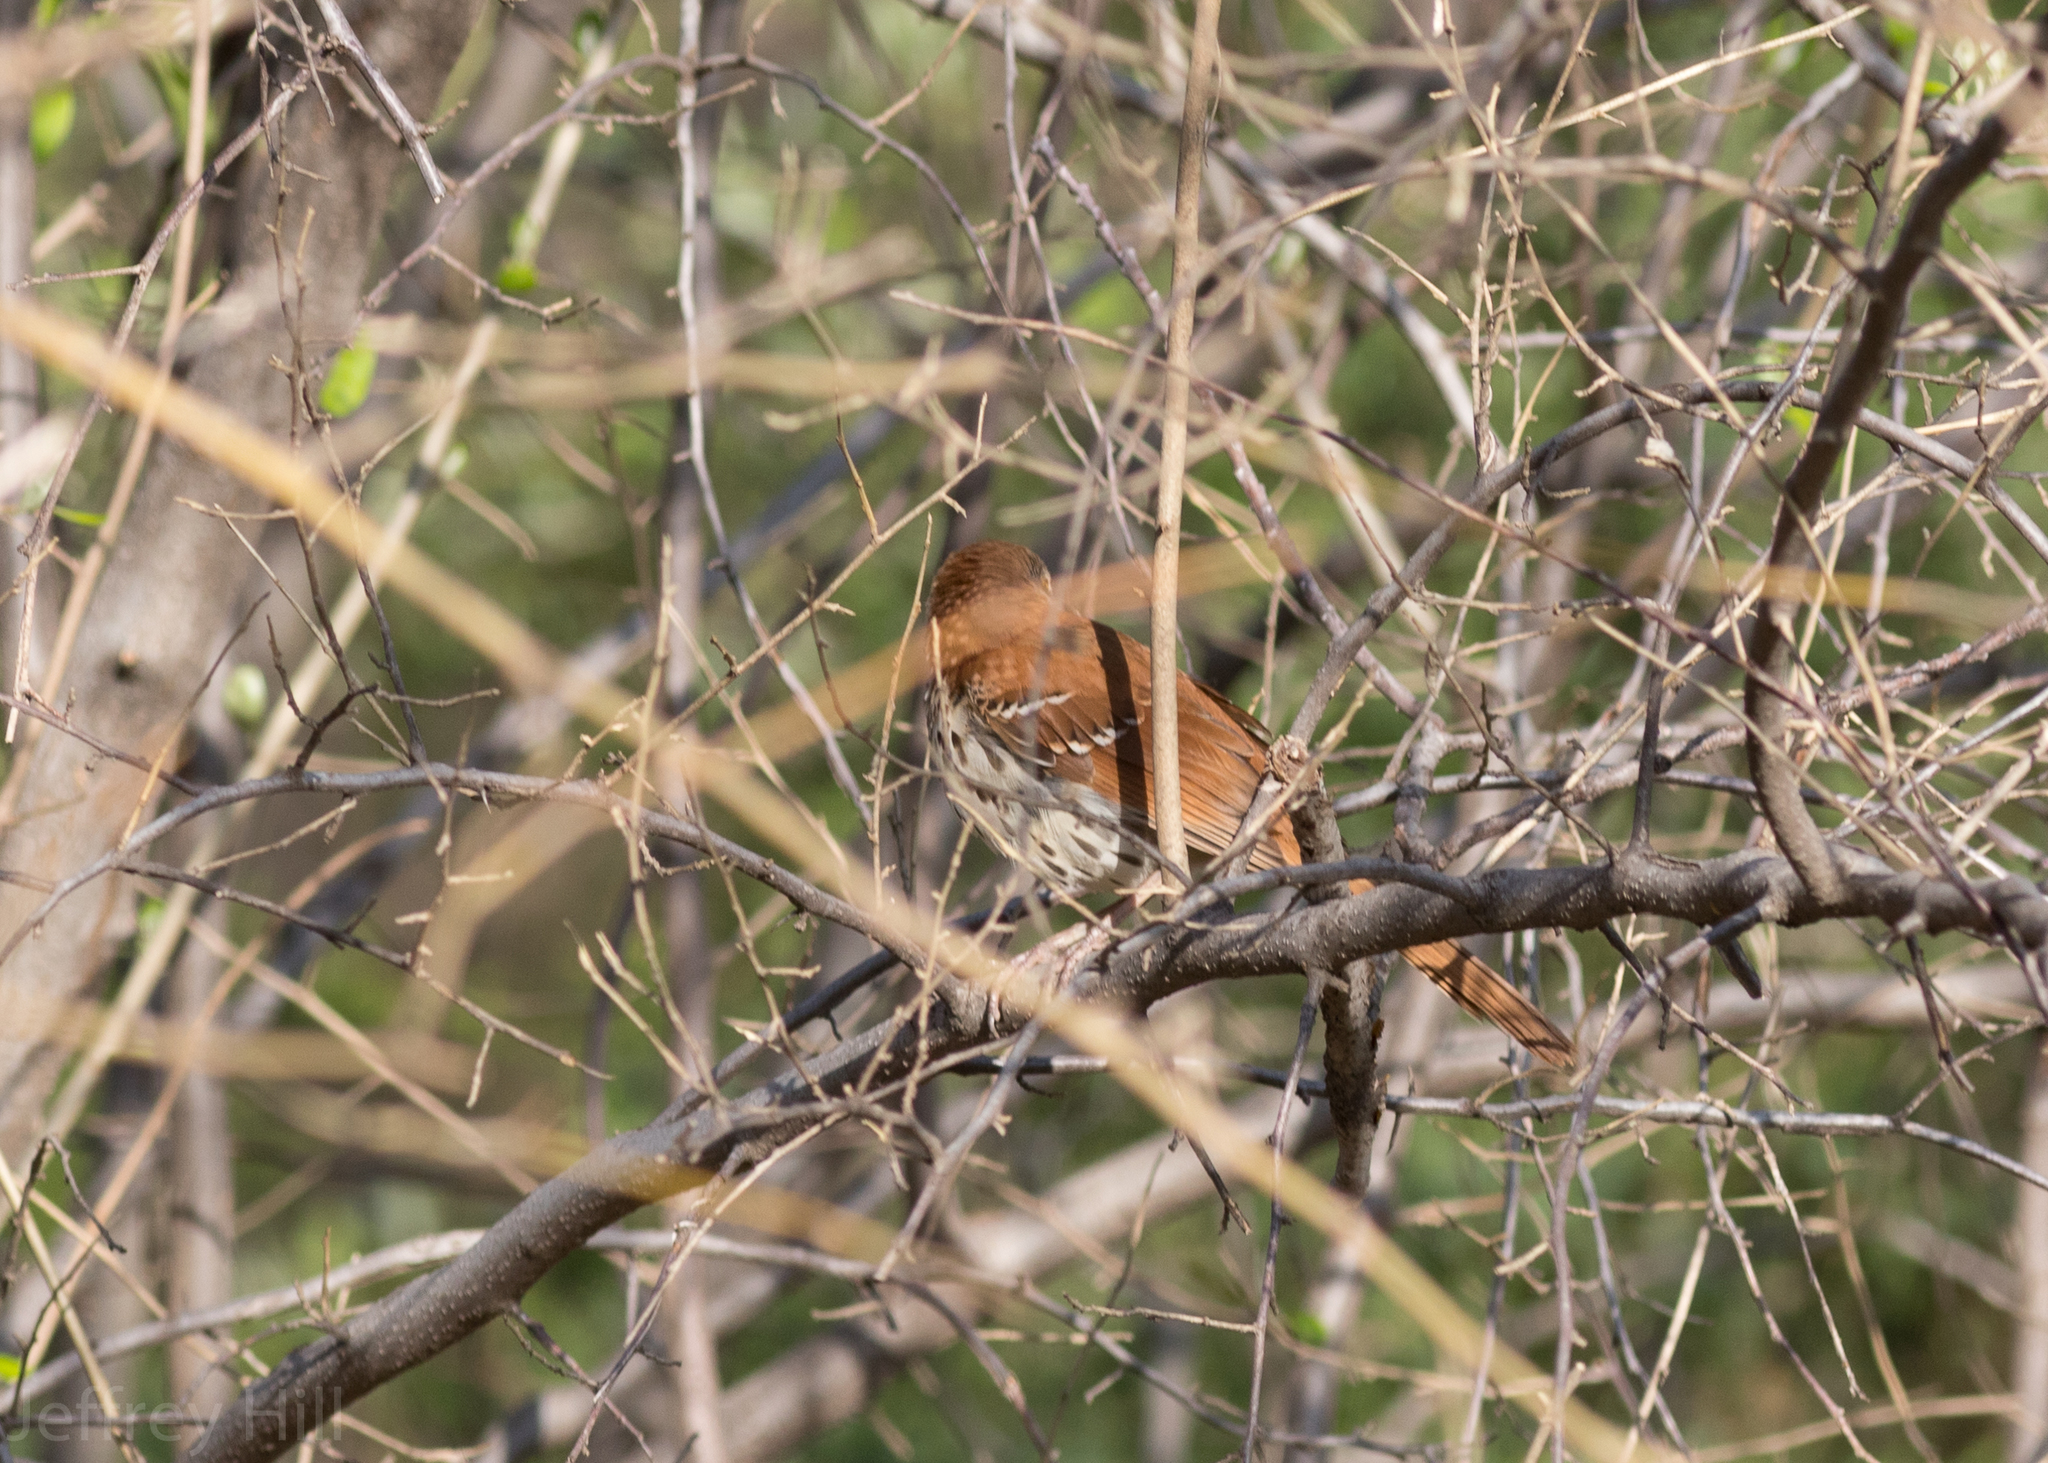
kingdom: Animalia
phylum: Chordata
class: Aves
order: Passeriformes
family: Mimidae
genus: Toxostoma
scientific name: Toxostoma rufum
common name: Brown thrasher
